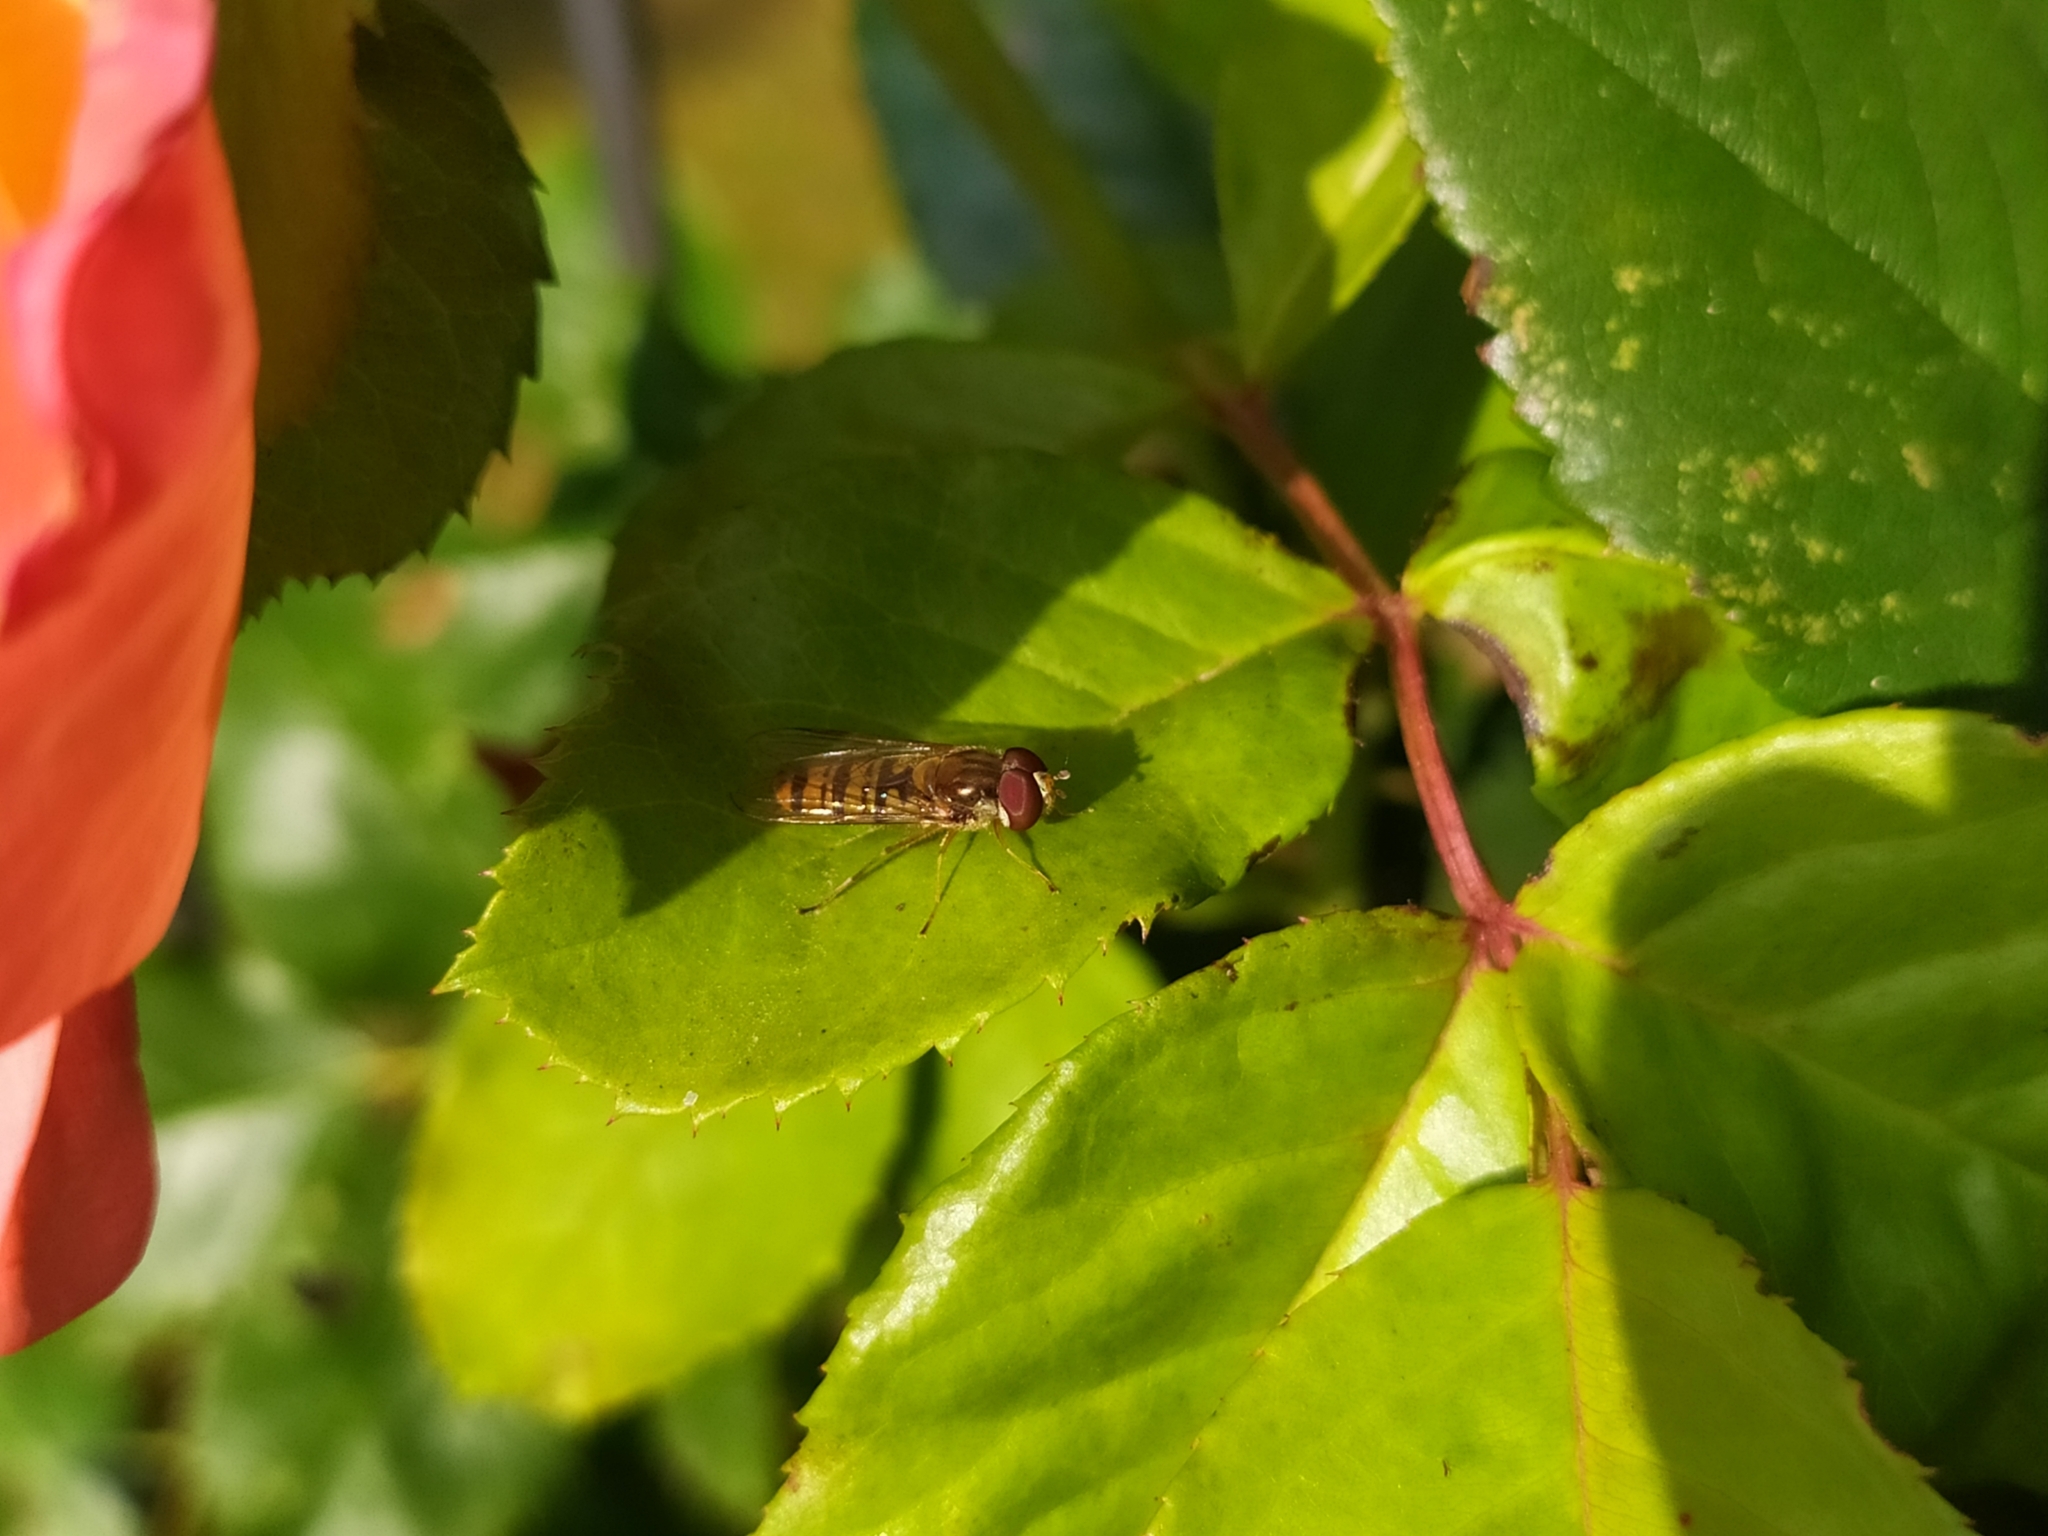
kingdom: Animalia
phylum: Arthropoda
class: Insecta
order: Diptera
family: Syrphidae
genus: Episyrphus
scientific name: Episyrphus balteatus
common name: Marmalade hoverfly
